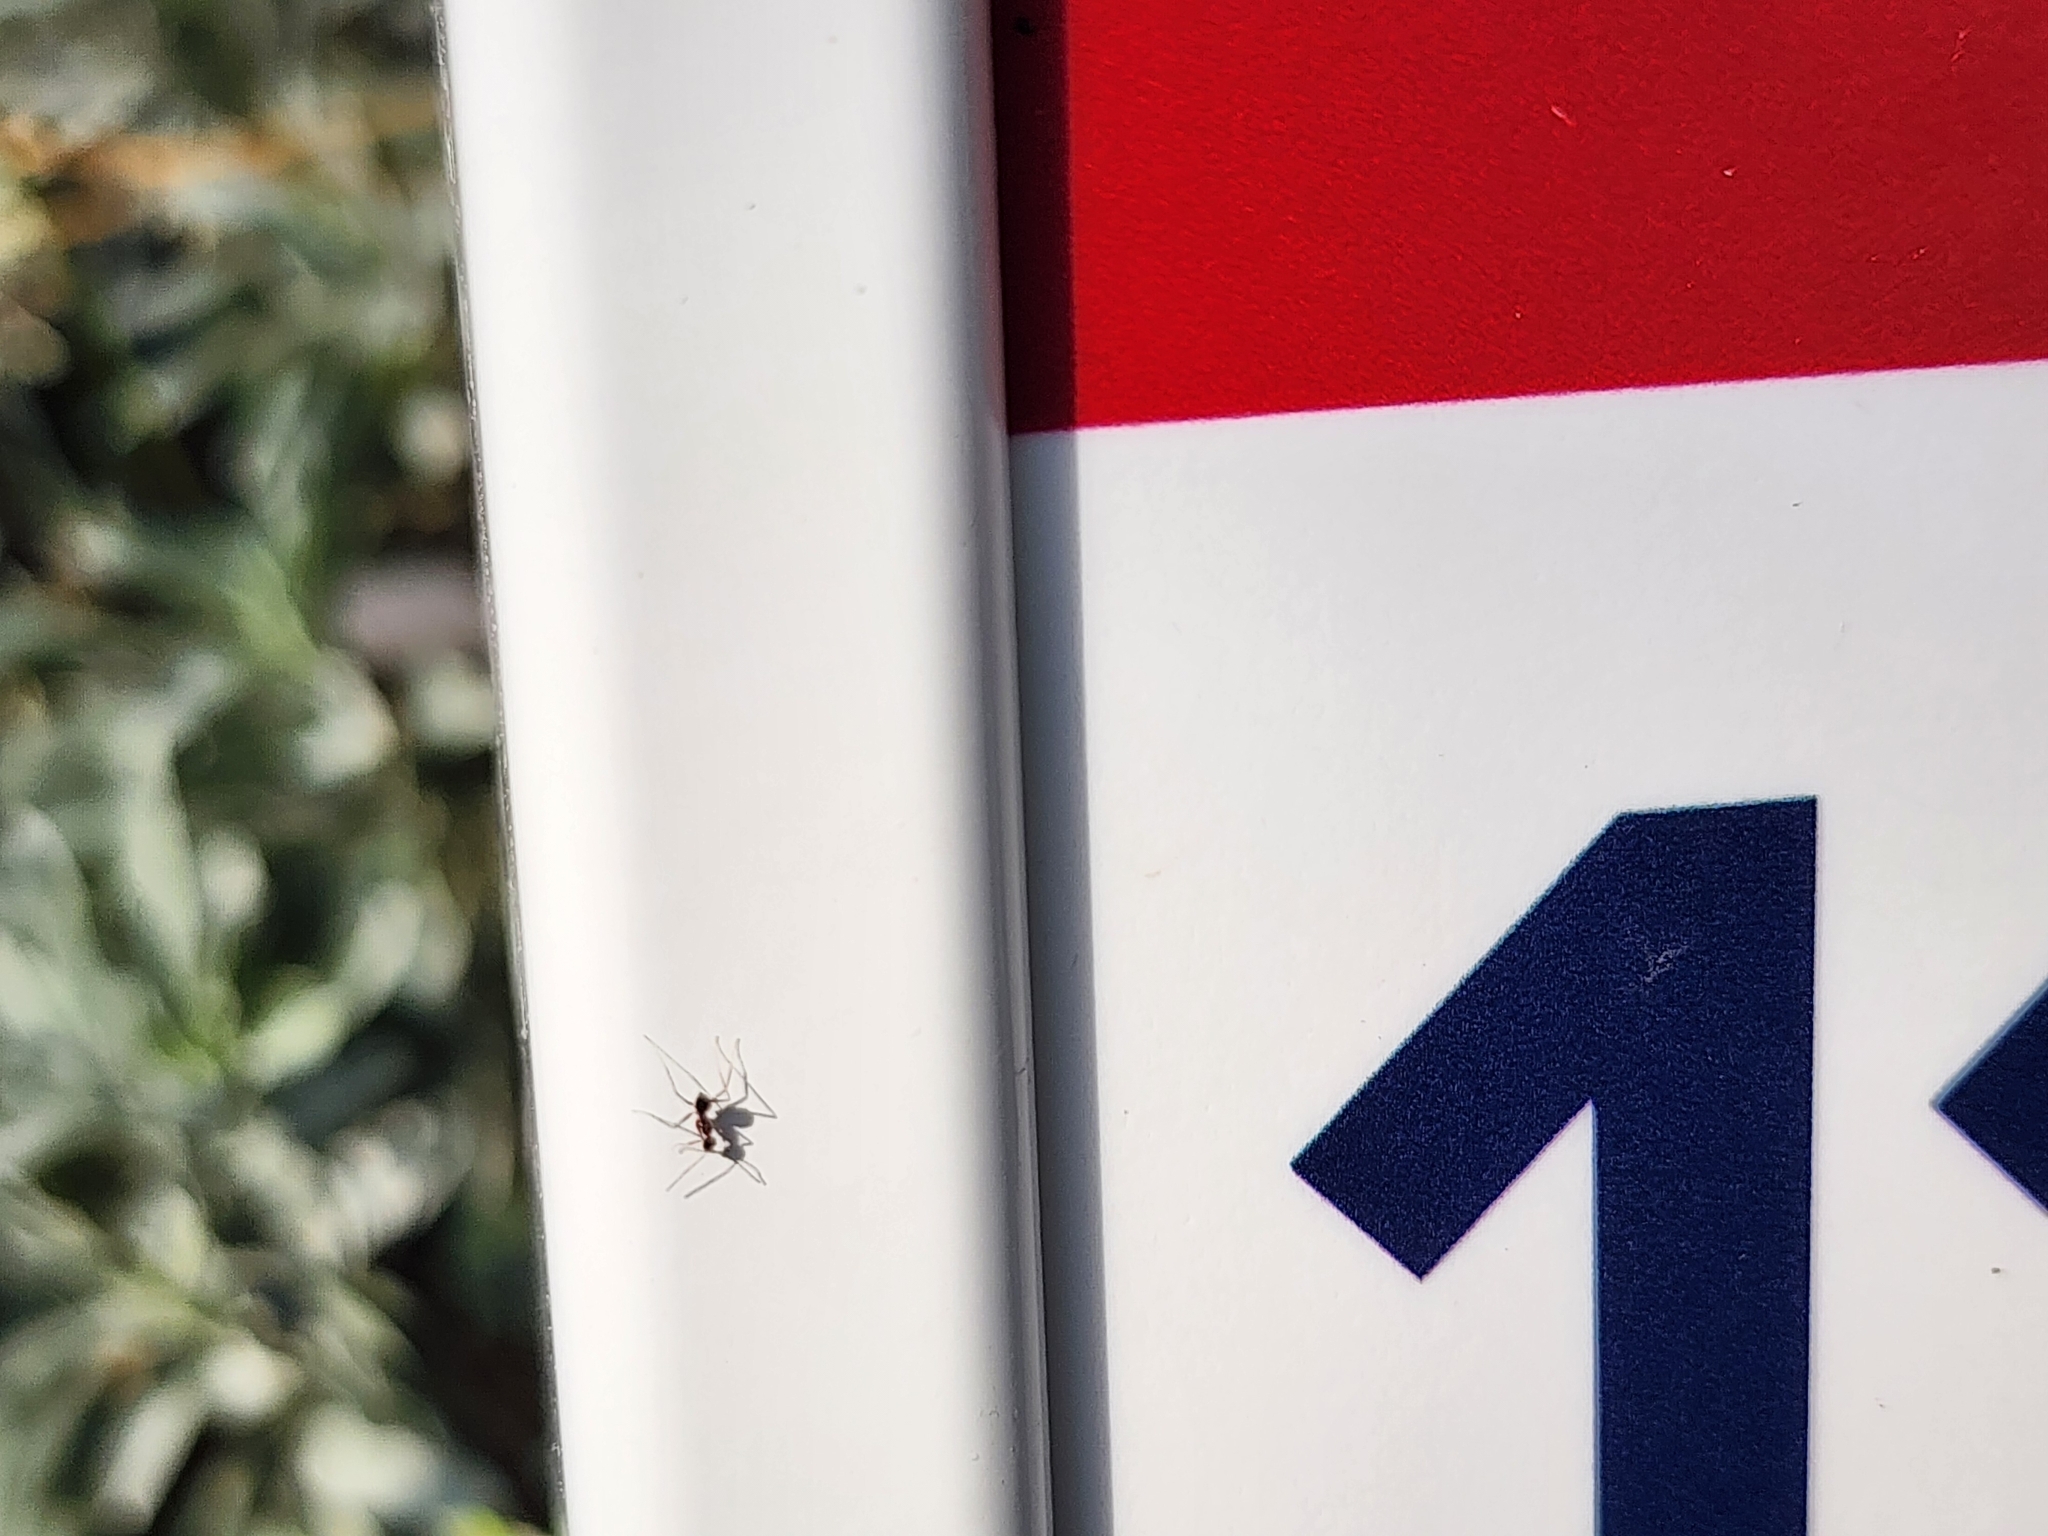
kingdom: Animalia
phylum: Arthropoda
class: Insecta
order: Hymenoptera
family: Formicidae
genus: Paratrechina
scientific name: Paratrechina longicornis
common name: Longhorned crazy ant
